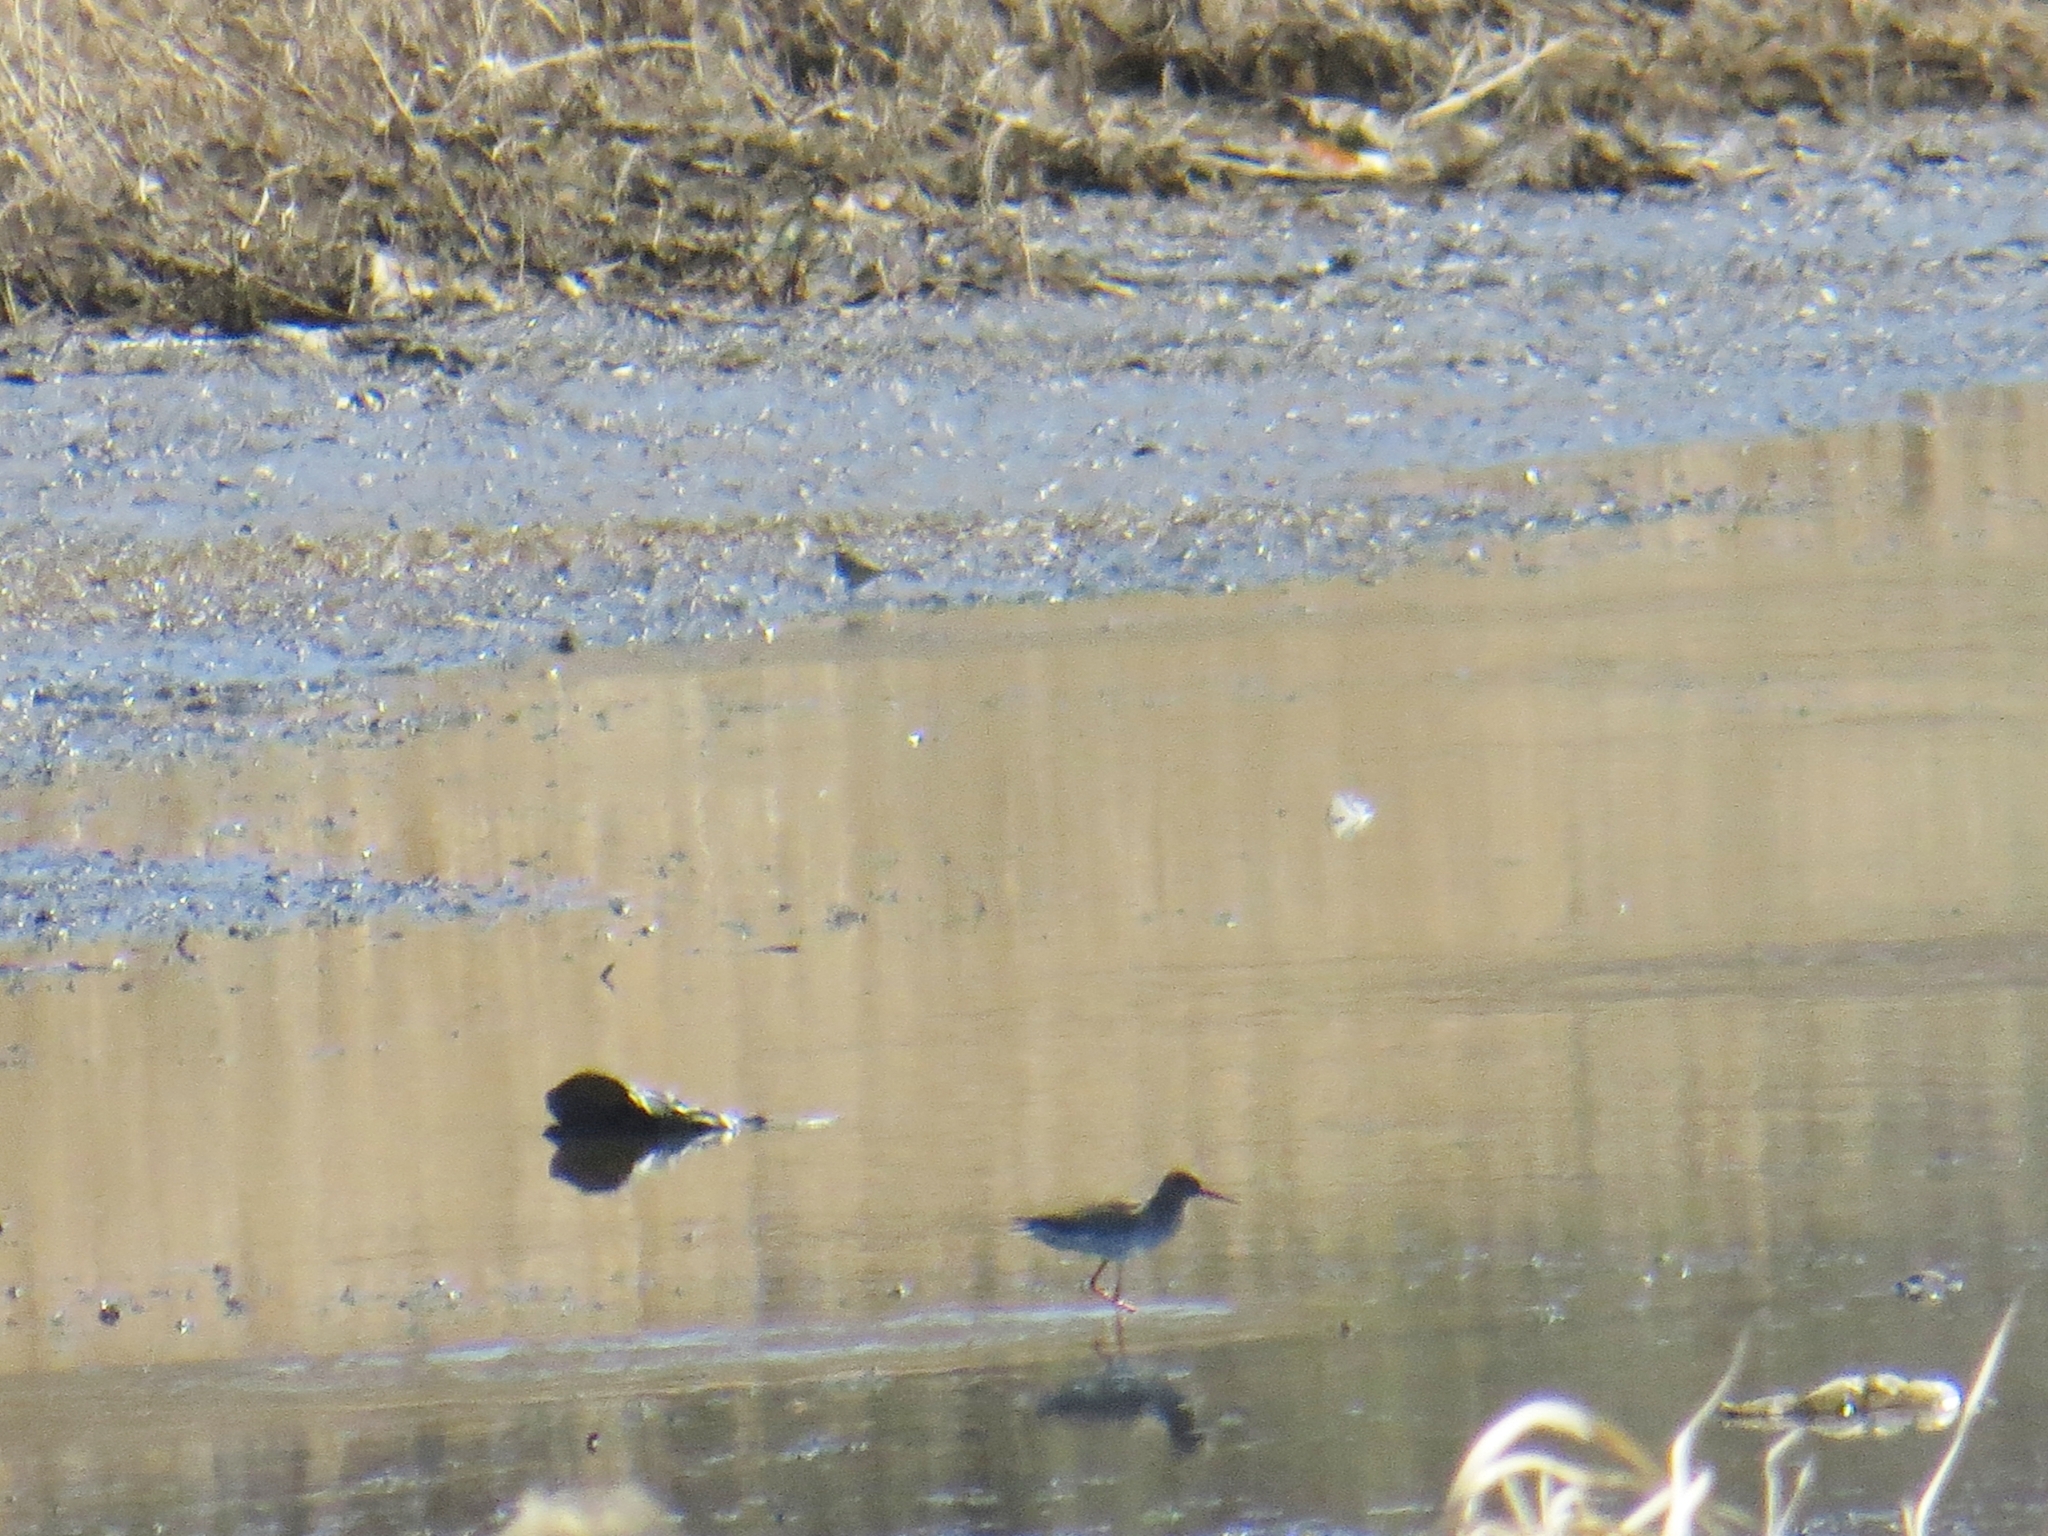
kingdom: Animalia
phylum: Chordata
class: Aves
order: Charadriiformes
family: Scolopacidae
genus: Tringa
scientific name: Tringa totanus
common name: Common redshank
